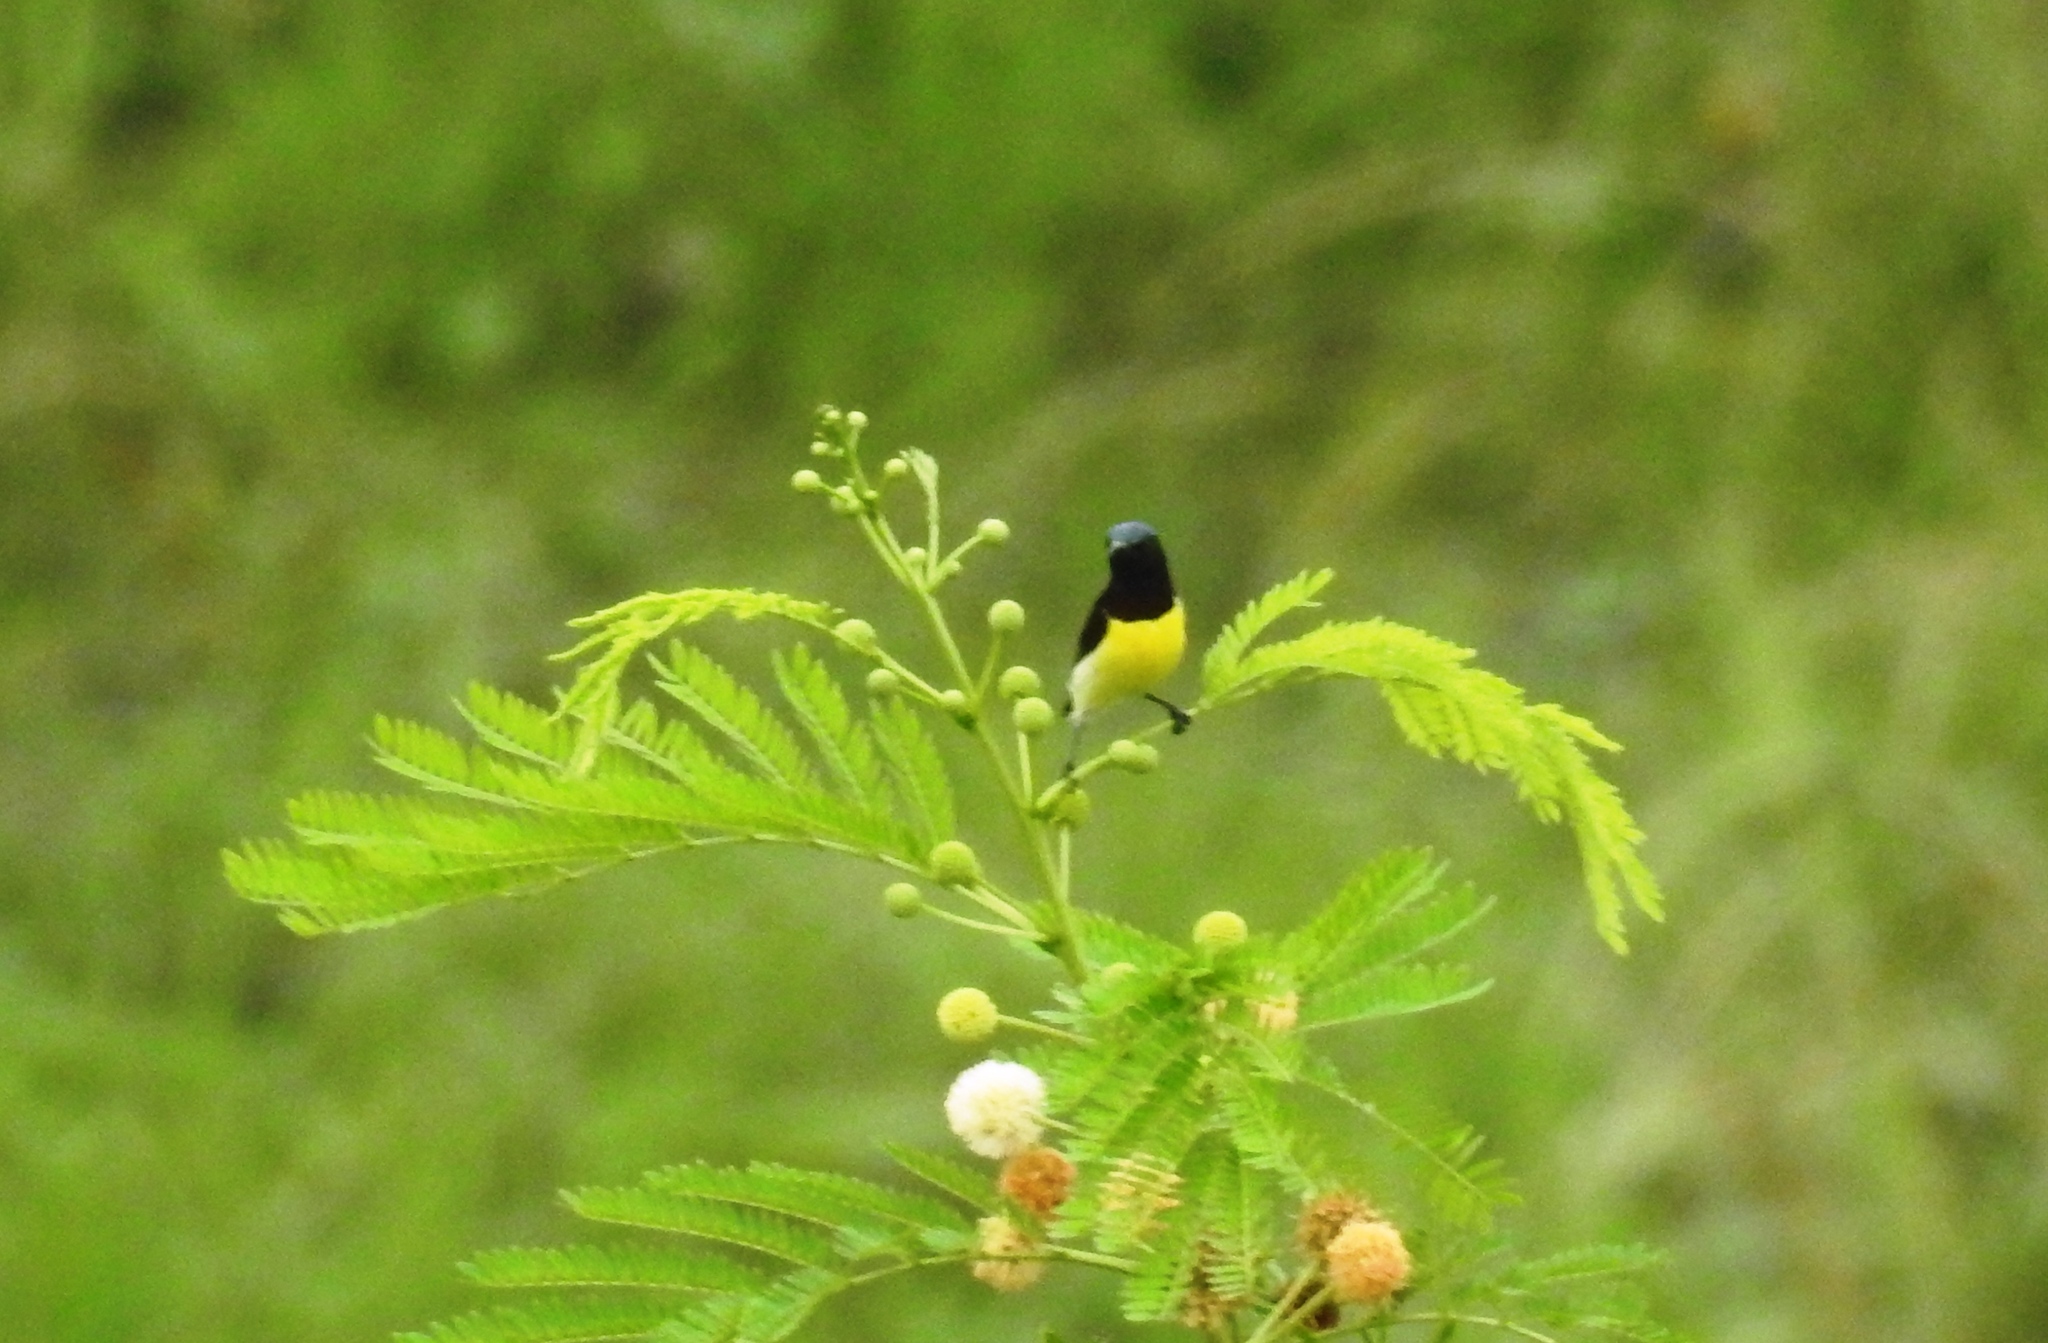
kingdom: Animalia
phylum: Chordata
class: Aves
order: Passeriformes
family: Nectariniidae
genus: Leptocoma
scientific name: Leptocoma zeylonica
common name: Purple-rumped sunbird
